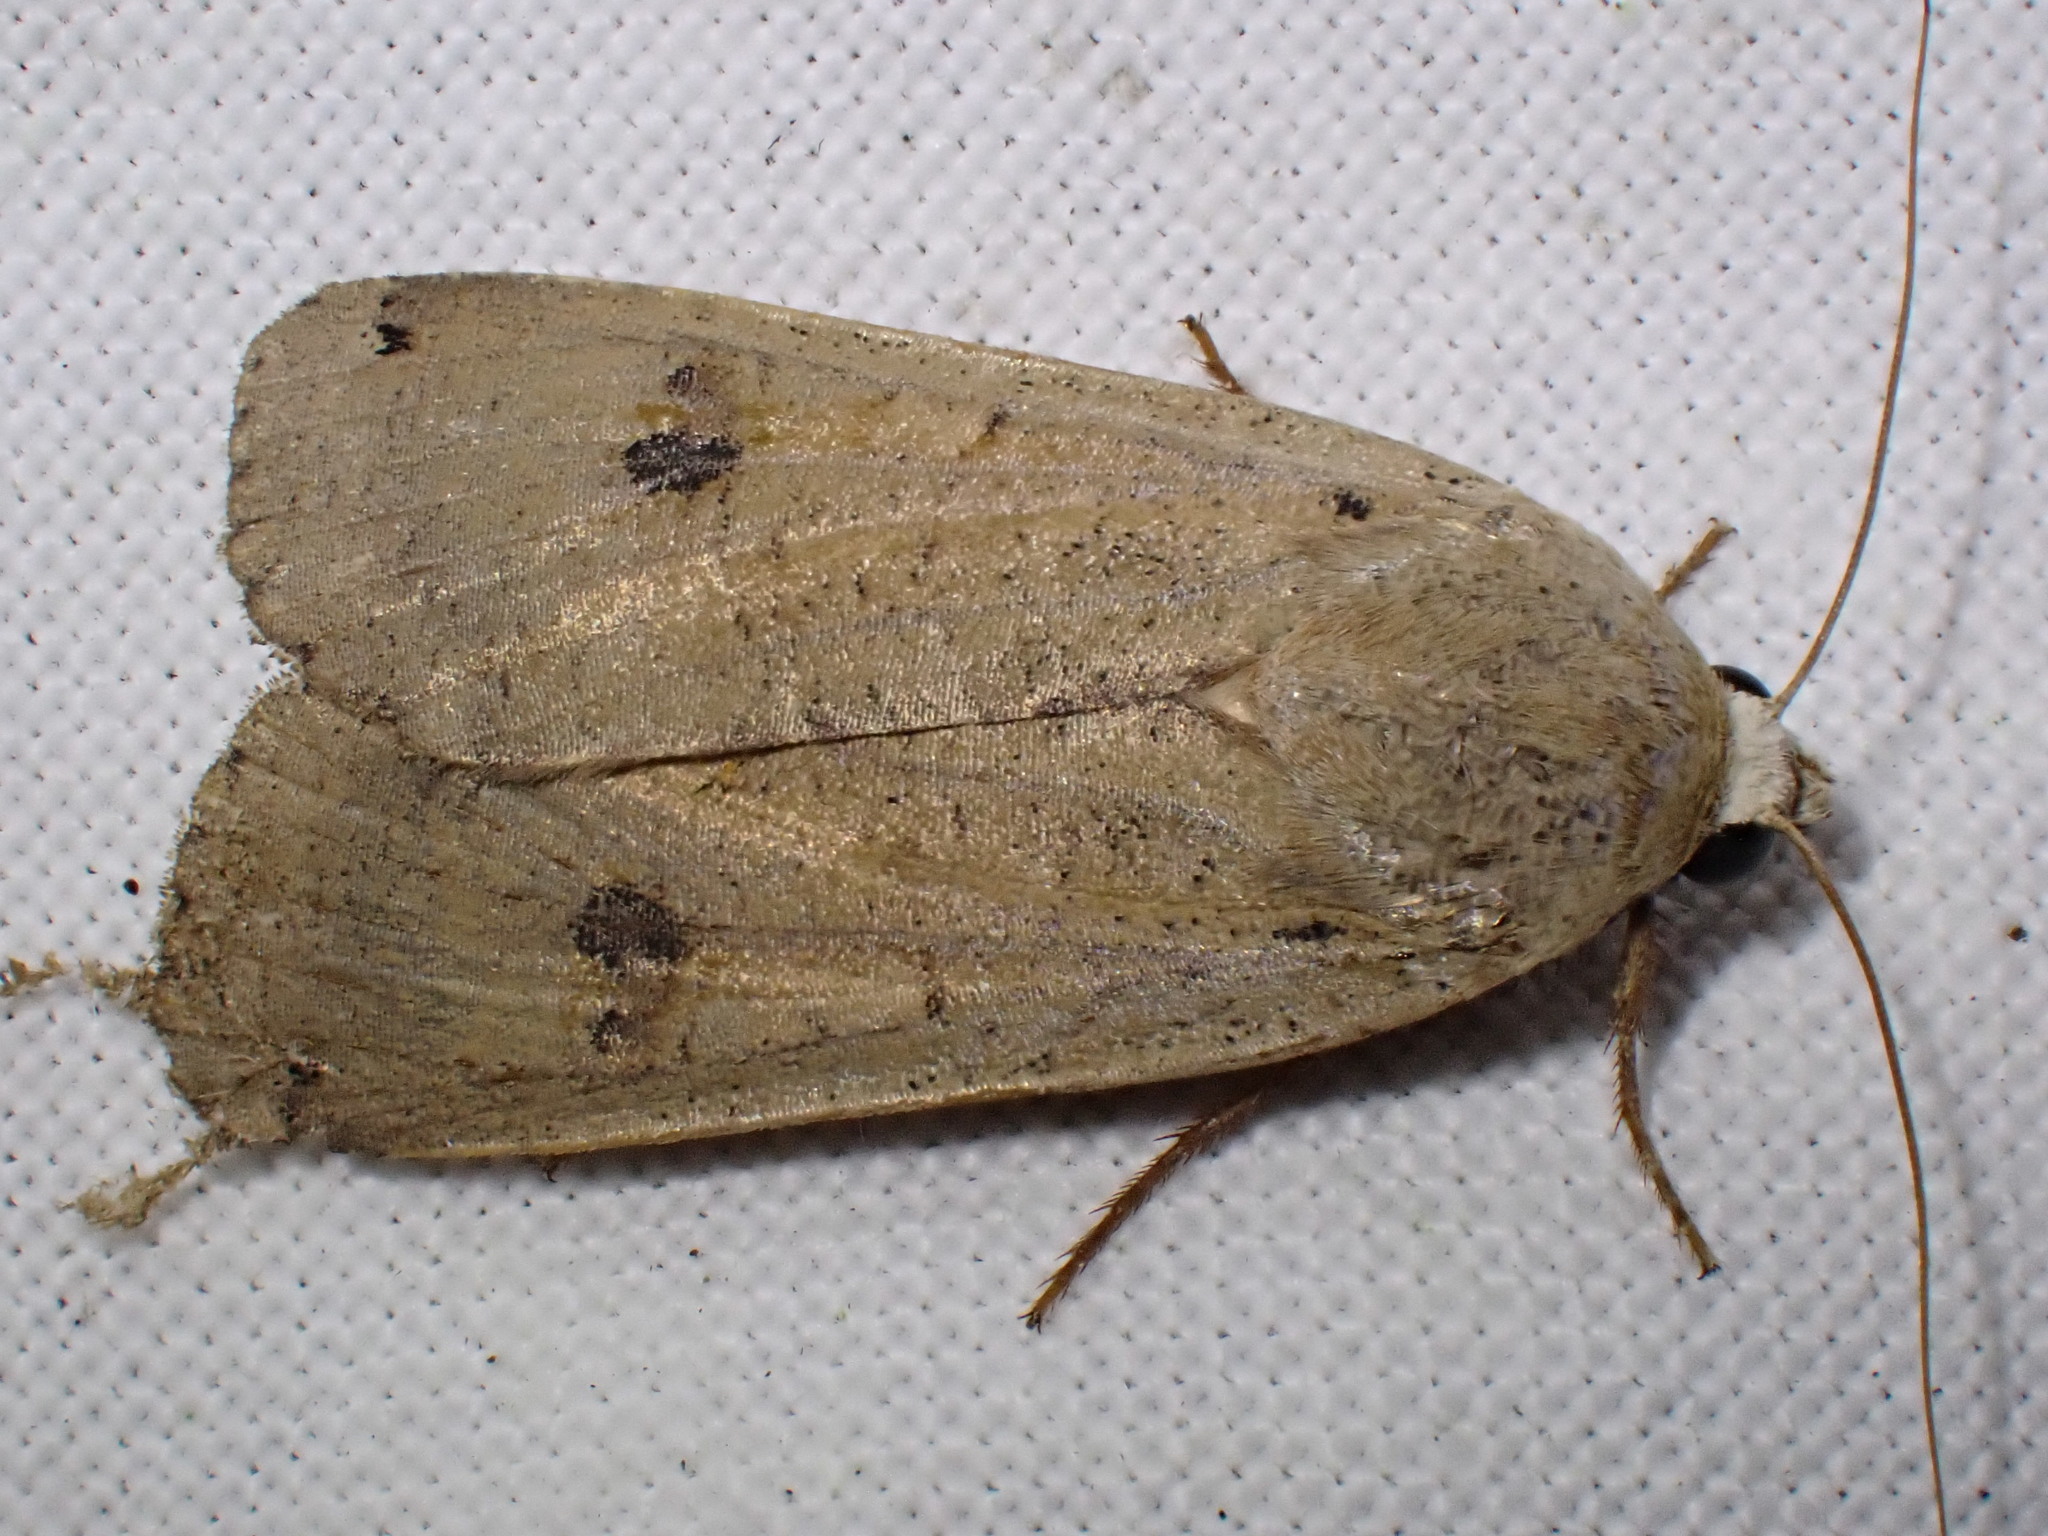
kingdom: Animalia
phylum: Arthropoda
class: Insecta
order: Lepidoptera
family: Noctuidae
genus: Noctua
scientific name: Noctua pronuba
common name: Large yellow underwing
